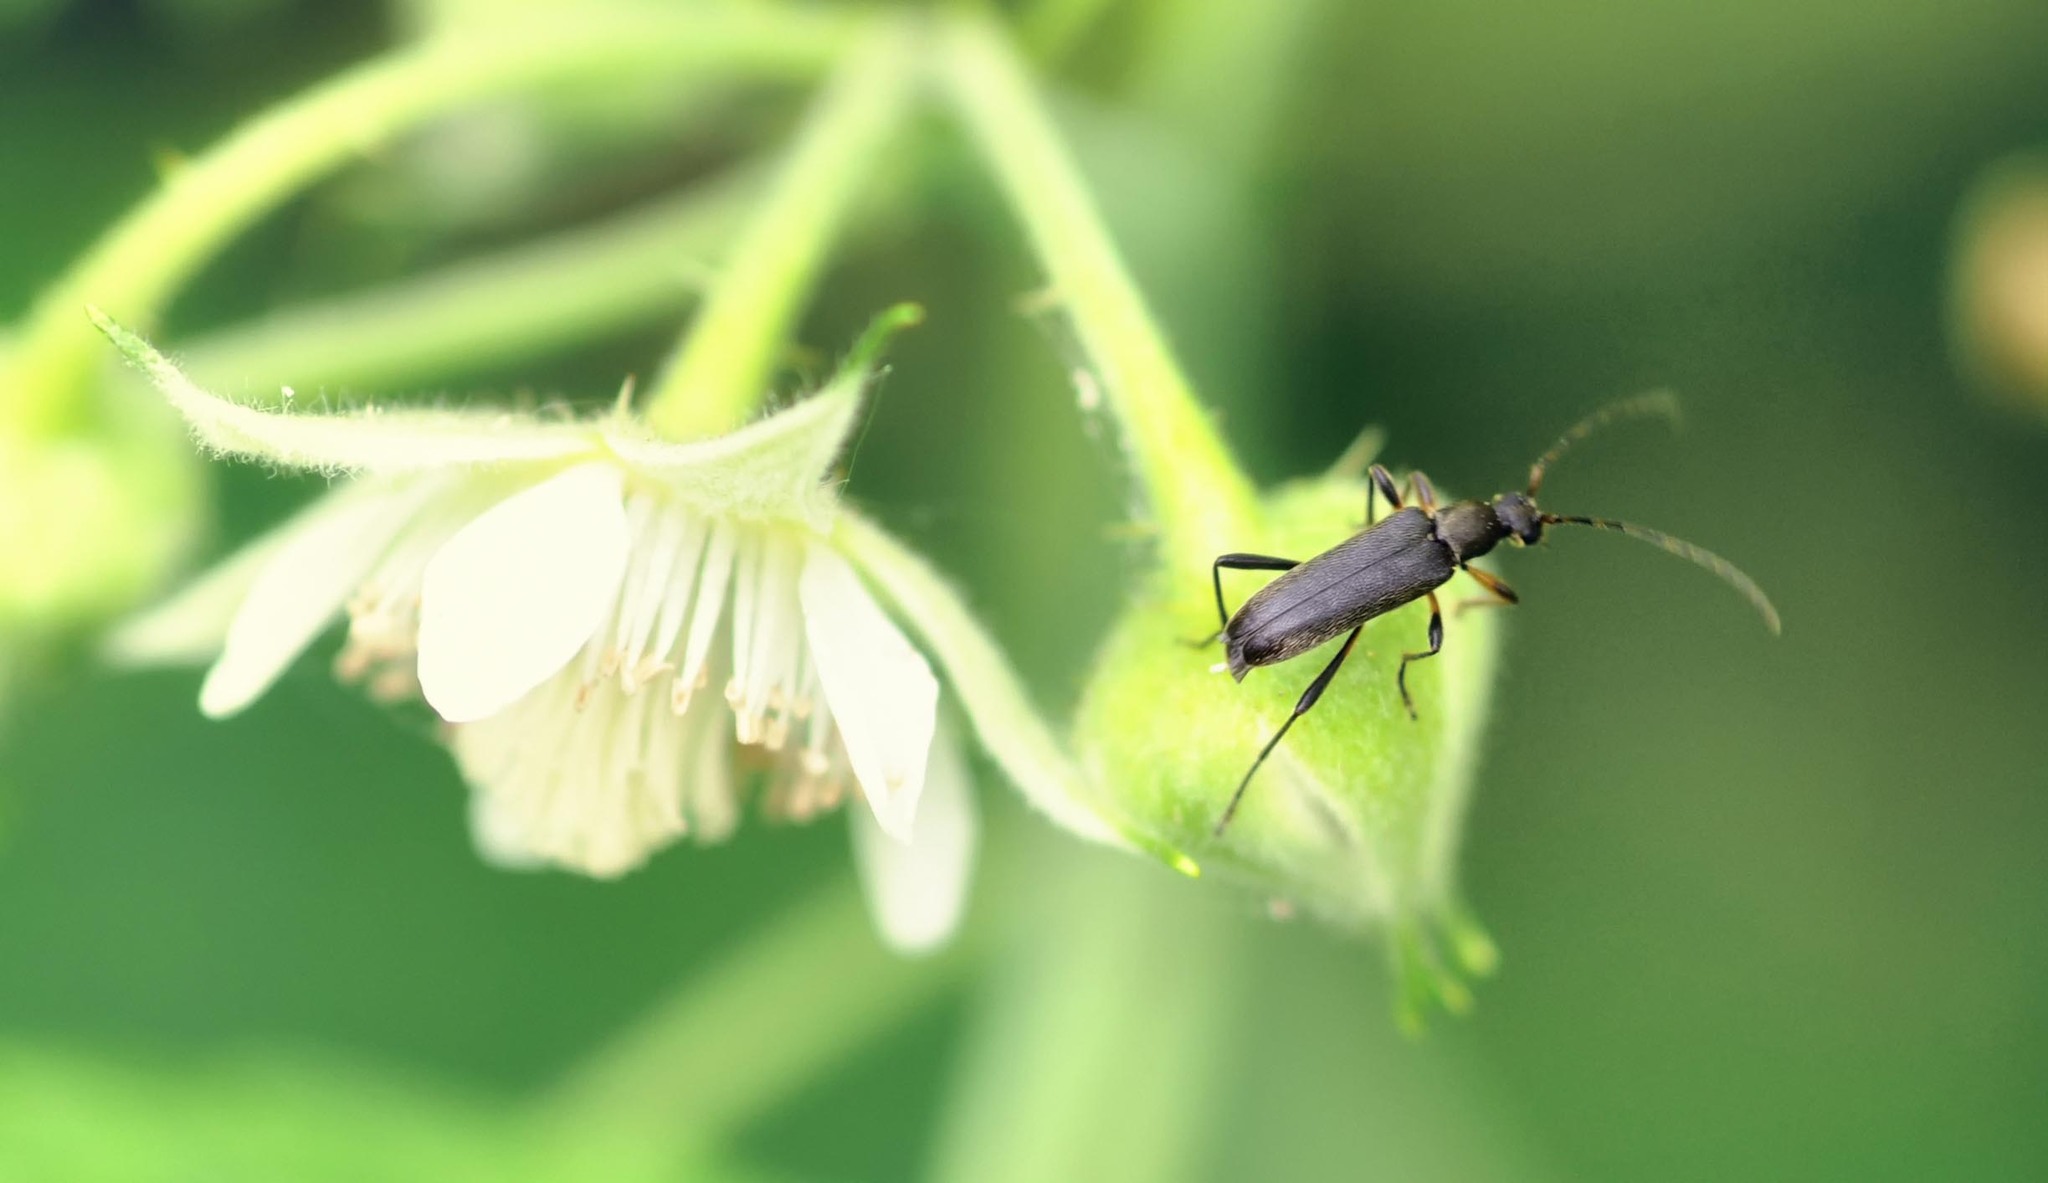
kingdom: Animalia
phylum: Arthropoda
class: Insecta
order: Coleoptera
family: Cerambycidae
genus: Grammoptera
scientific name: Grammoptera ruficornis
